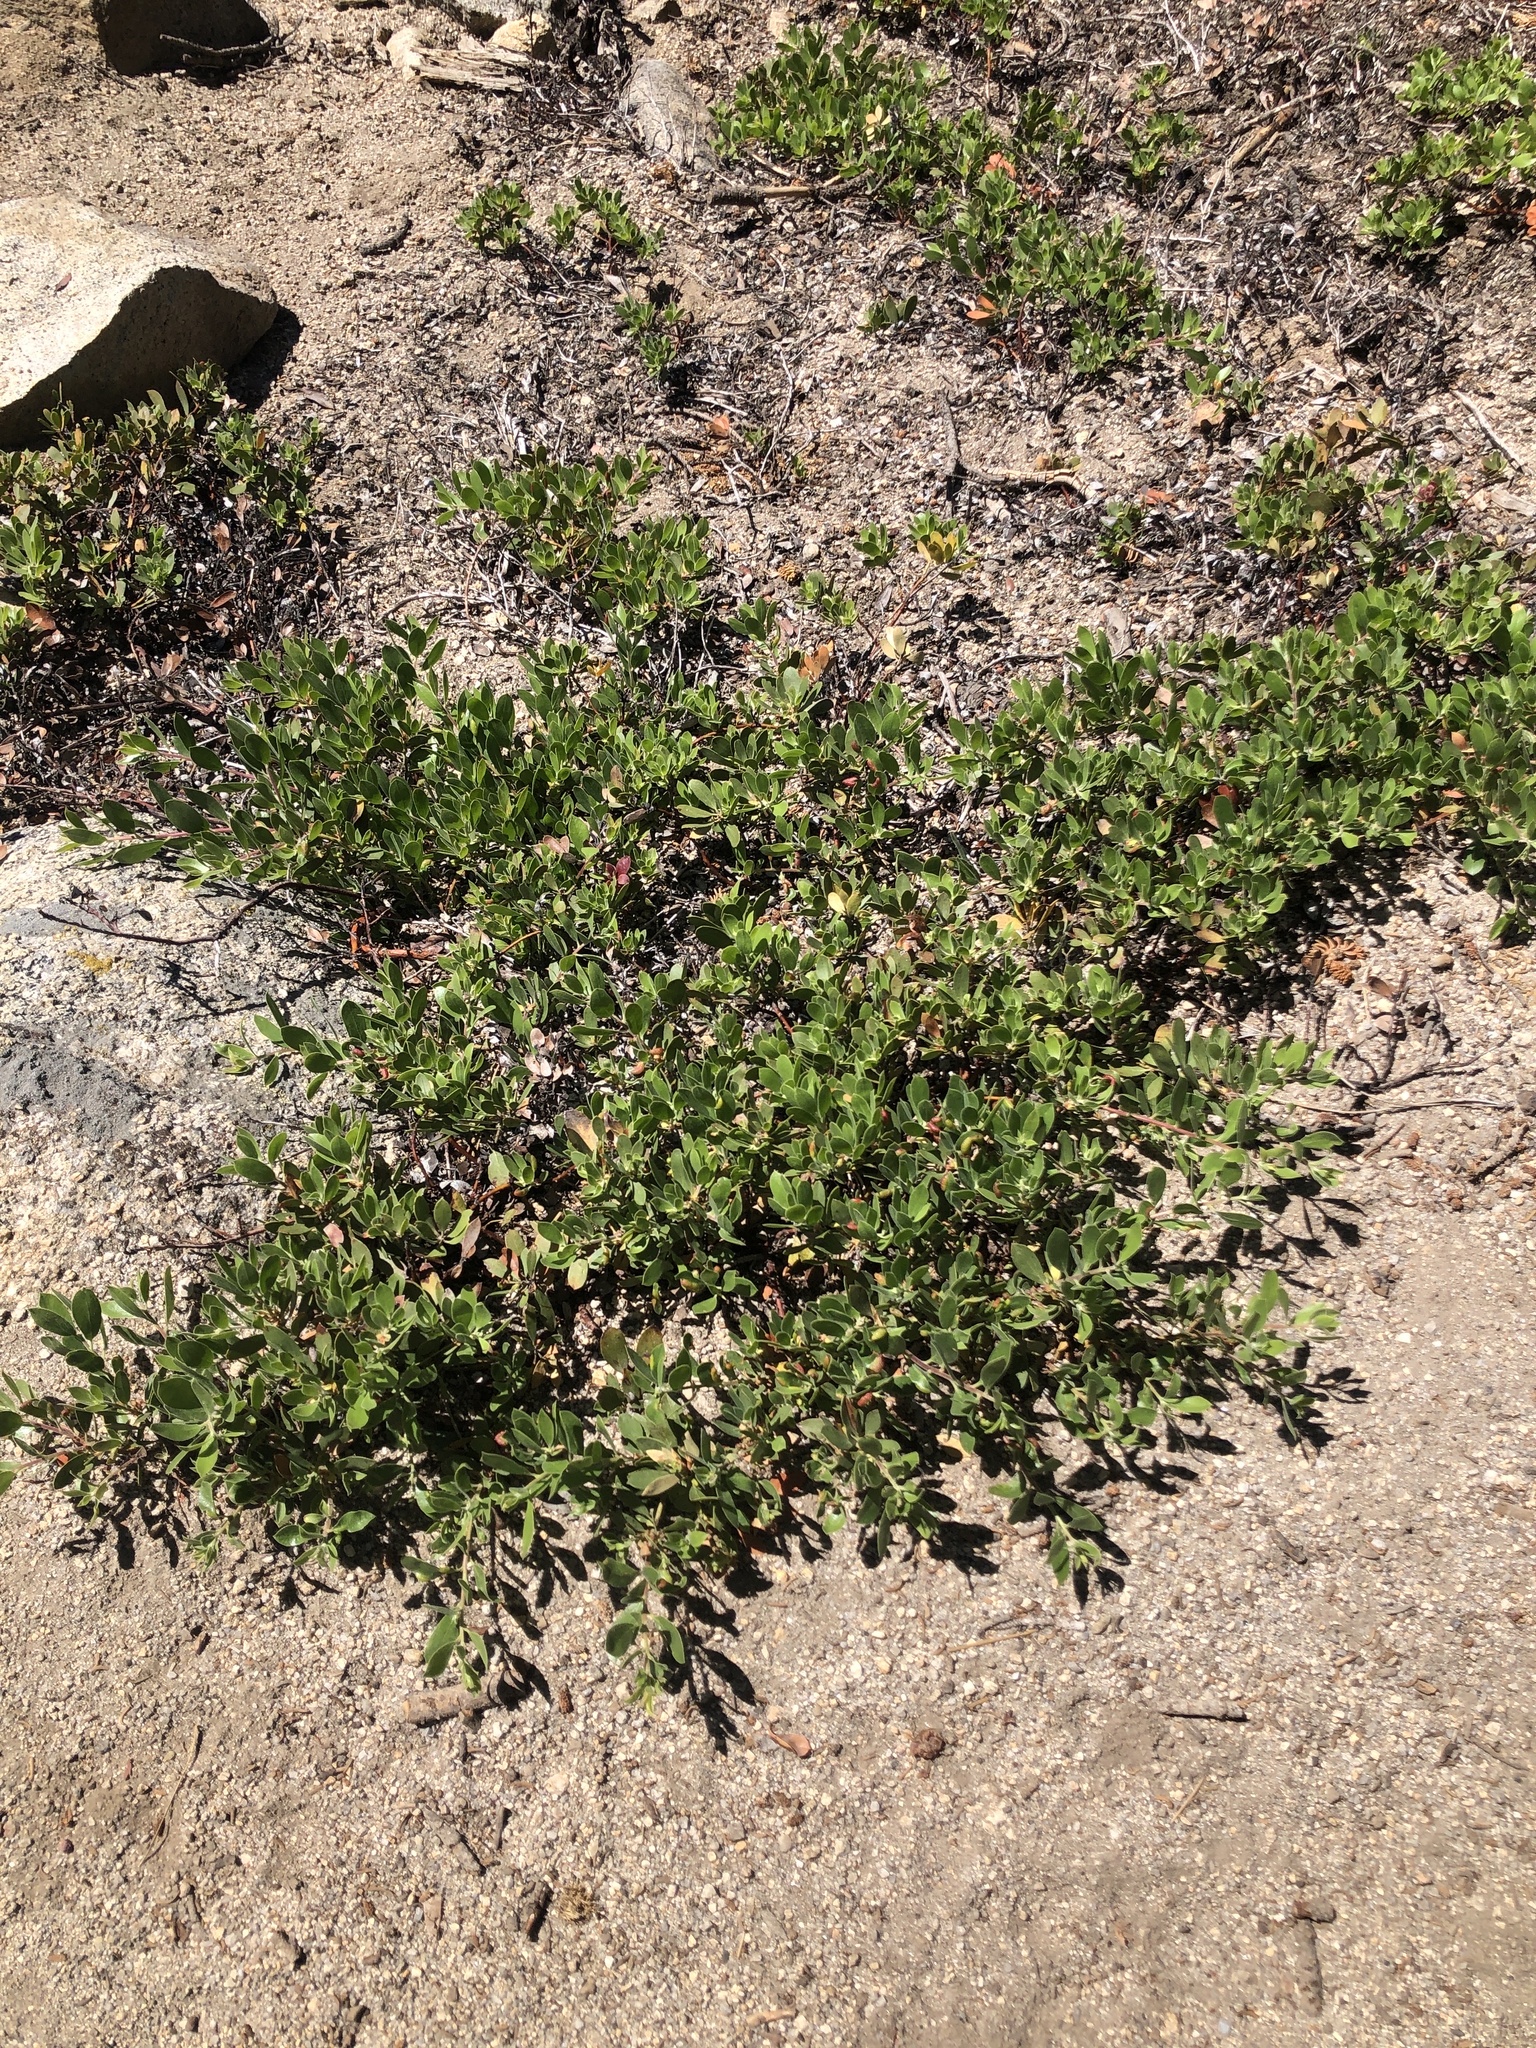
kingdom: Plantae
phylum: Tracheophyta
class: Magnoliopsida
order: Ericales
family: Ericaceae
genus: Arctostaphylos
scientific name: Arctostaphylos nevadensis
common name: Pinemat manzanita
